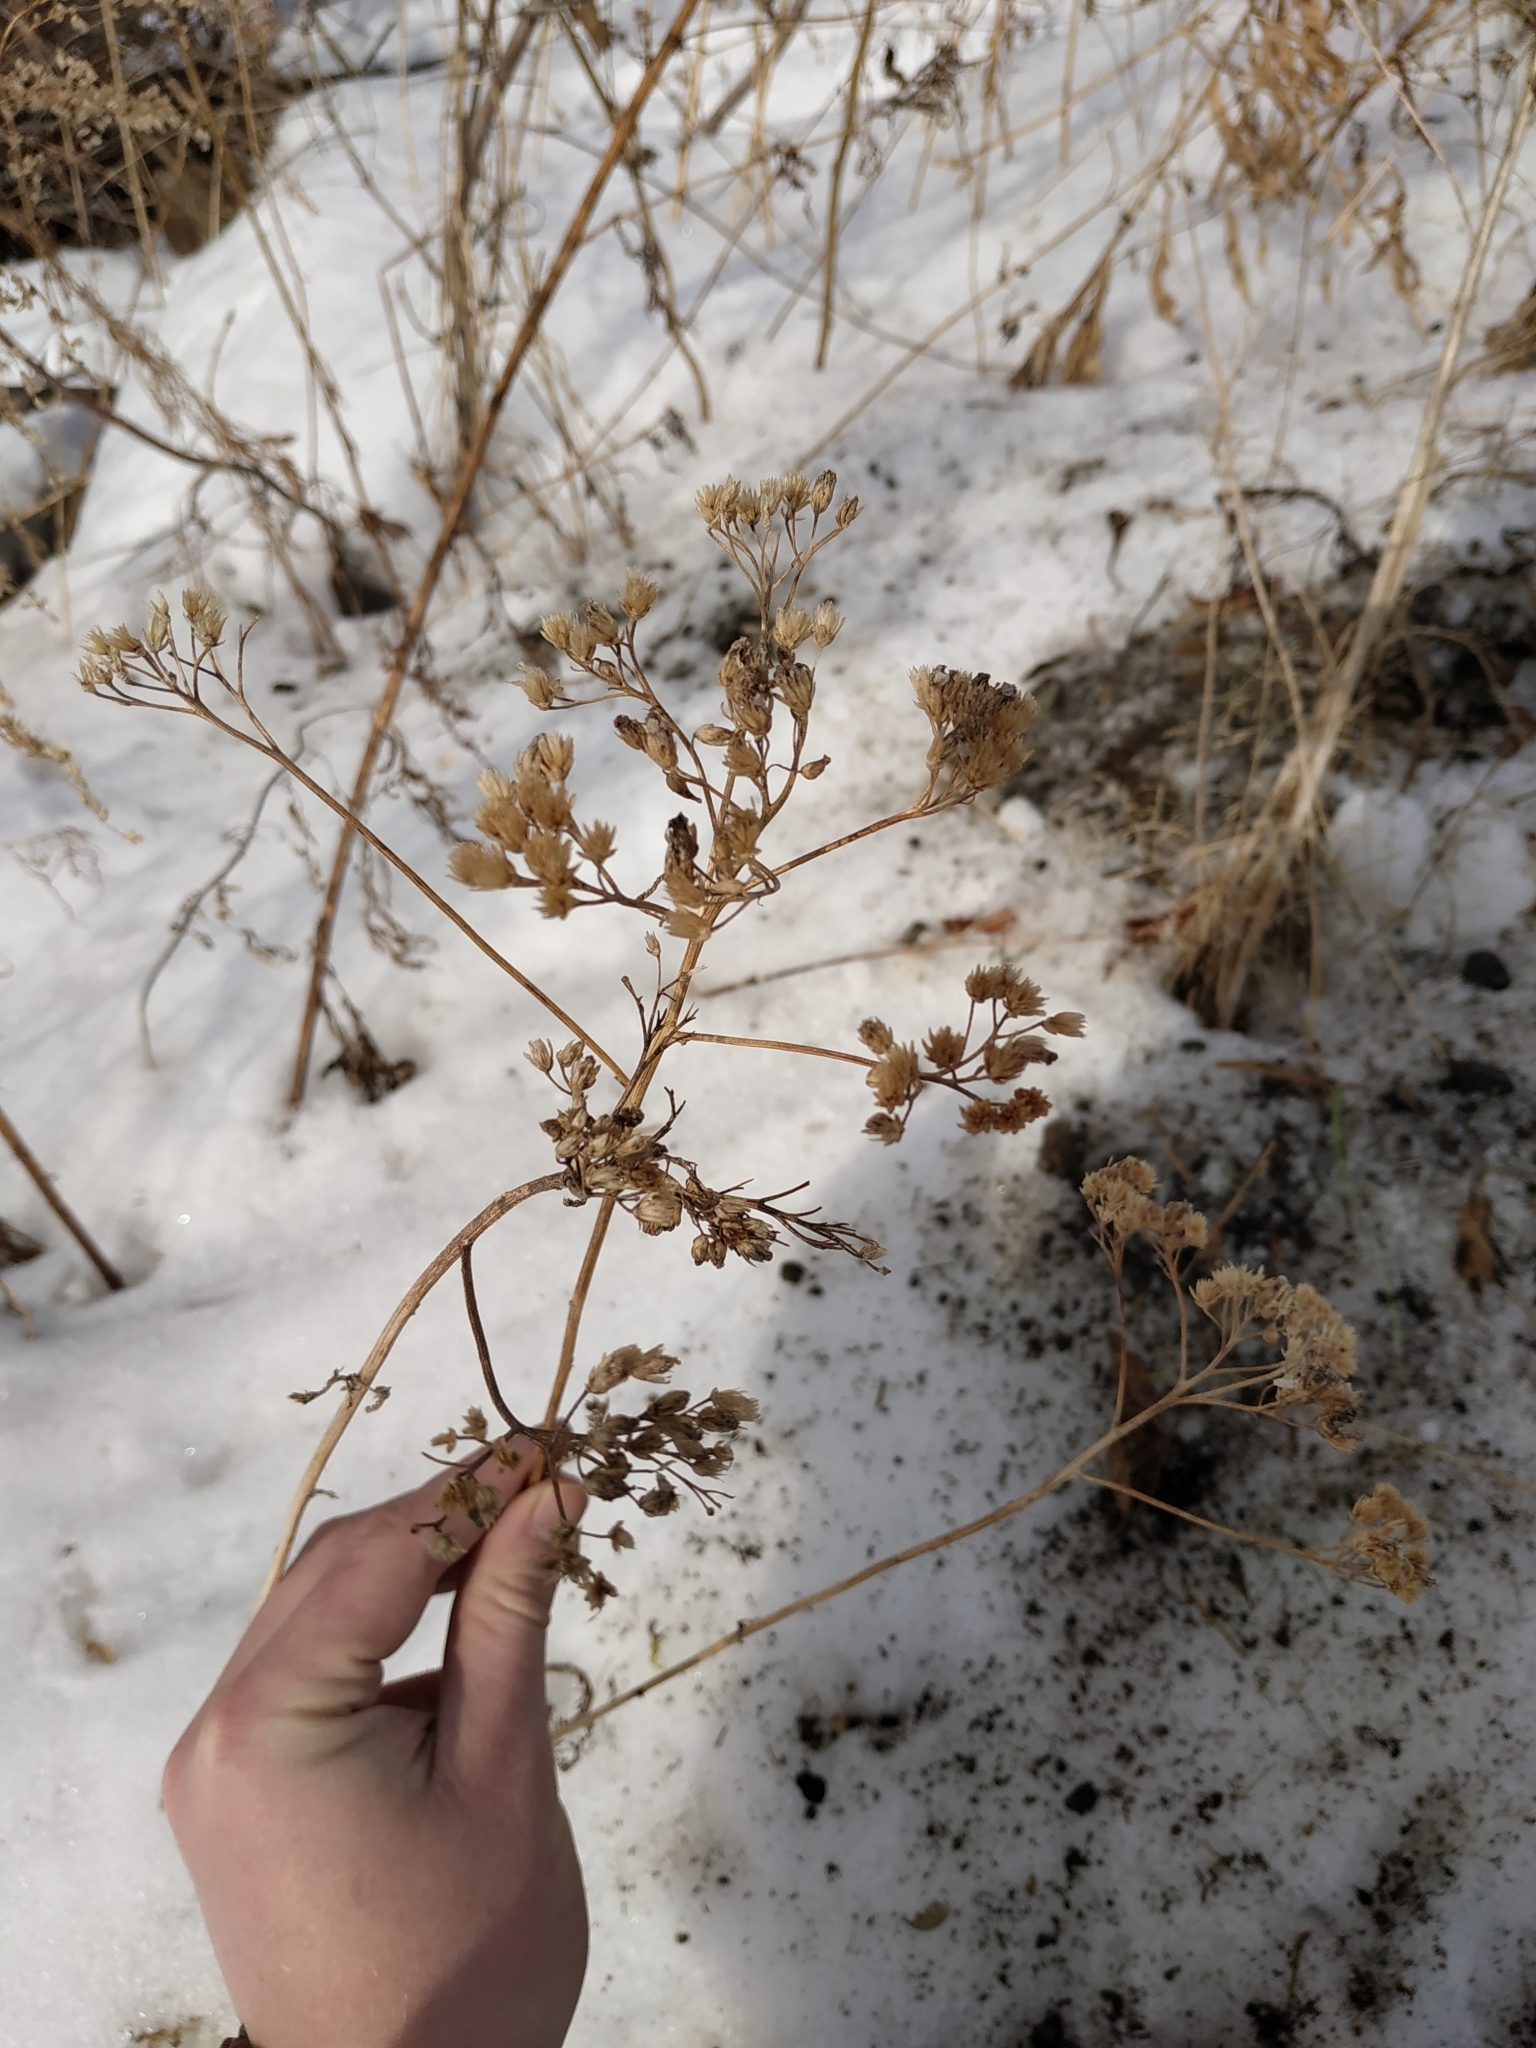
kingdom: Plantae
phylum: Tracheophyta
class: Magnoliopsida
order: Asterales
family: Asteraceae
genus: Achillea
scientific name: Achillea millefolium
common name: Yarrow
